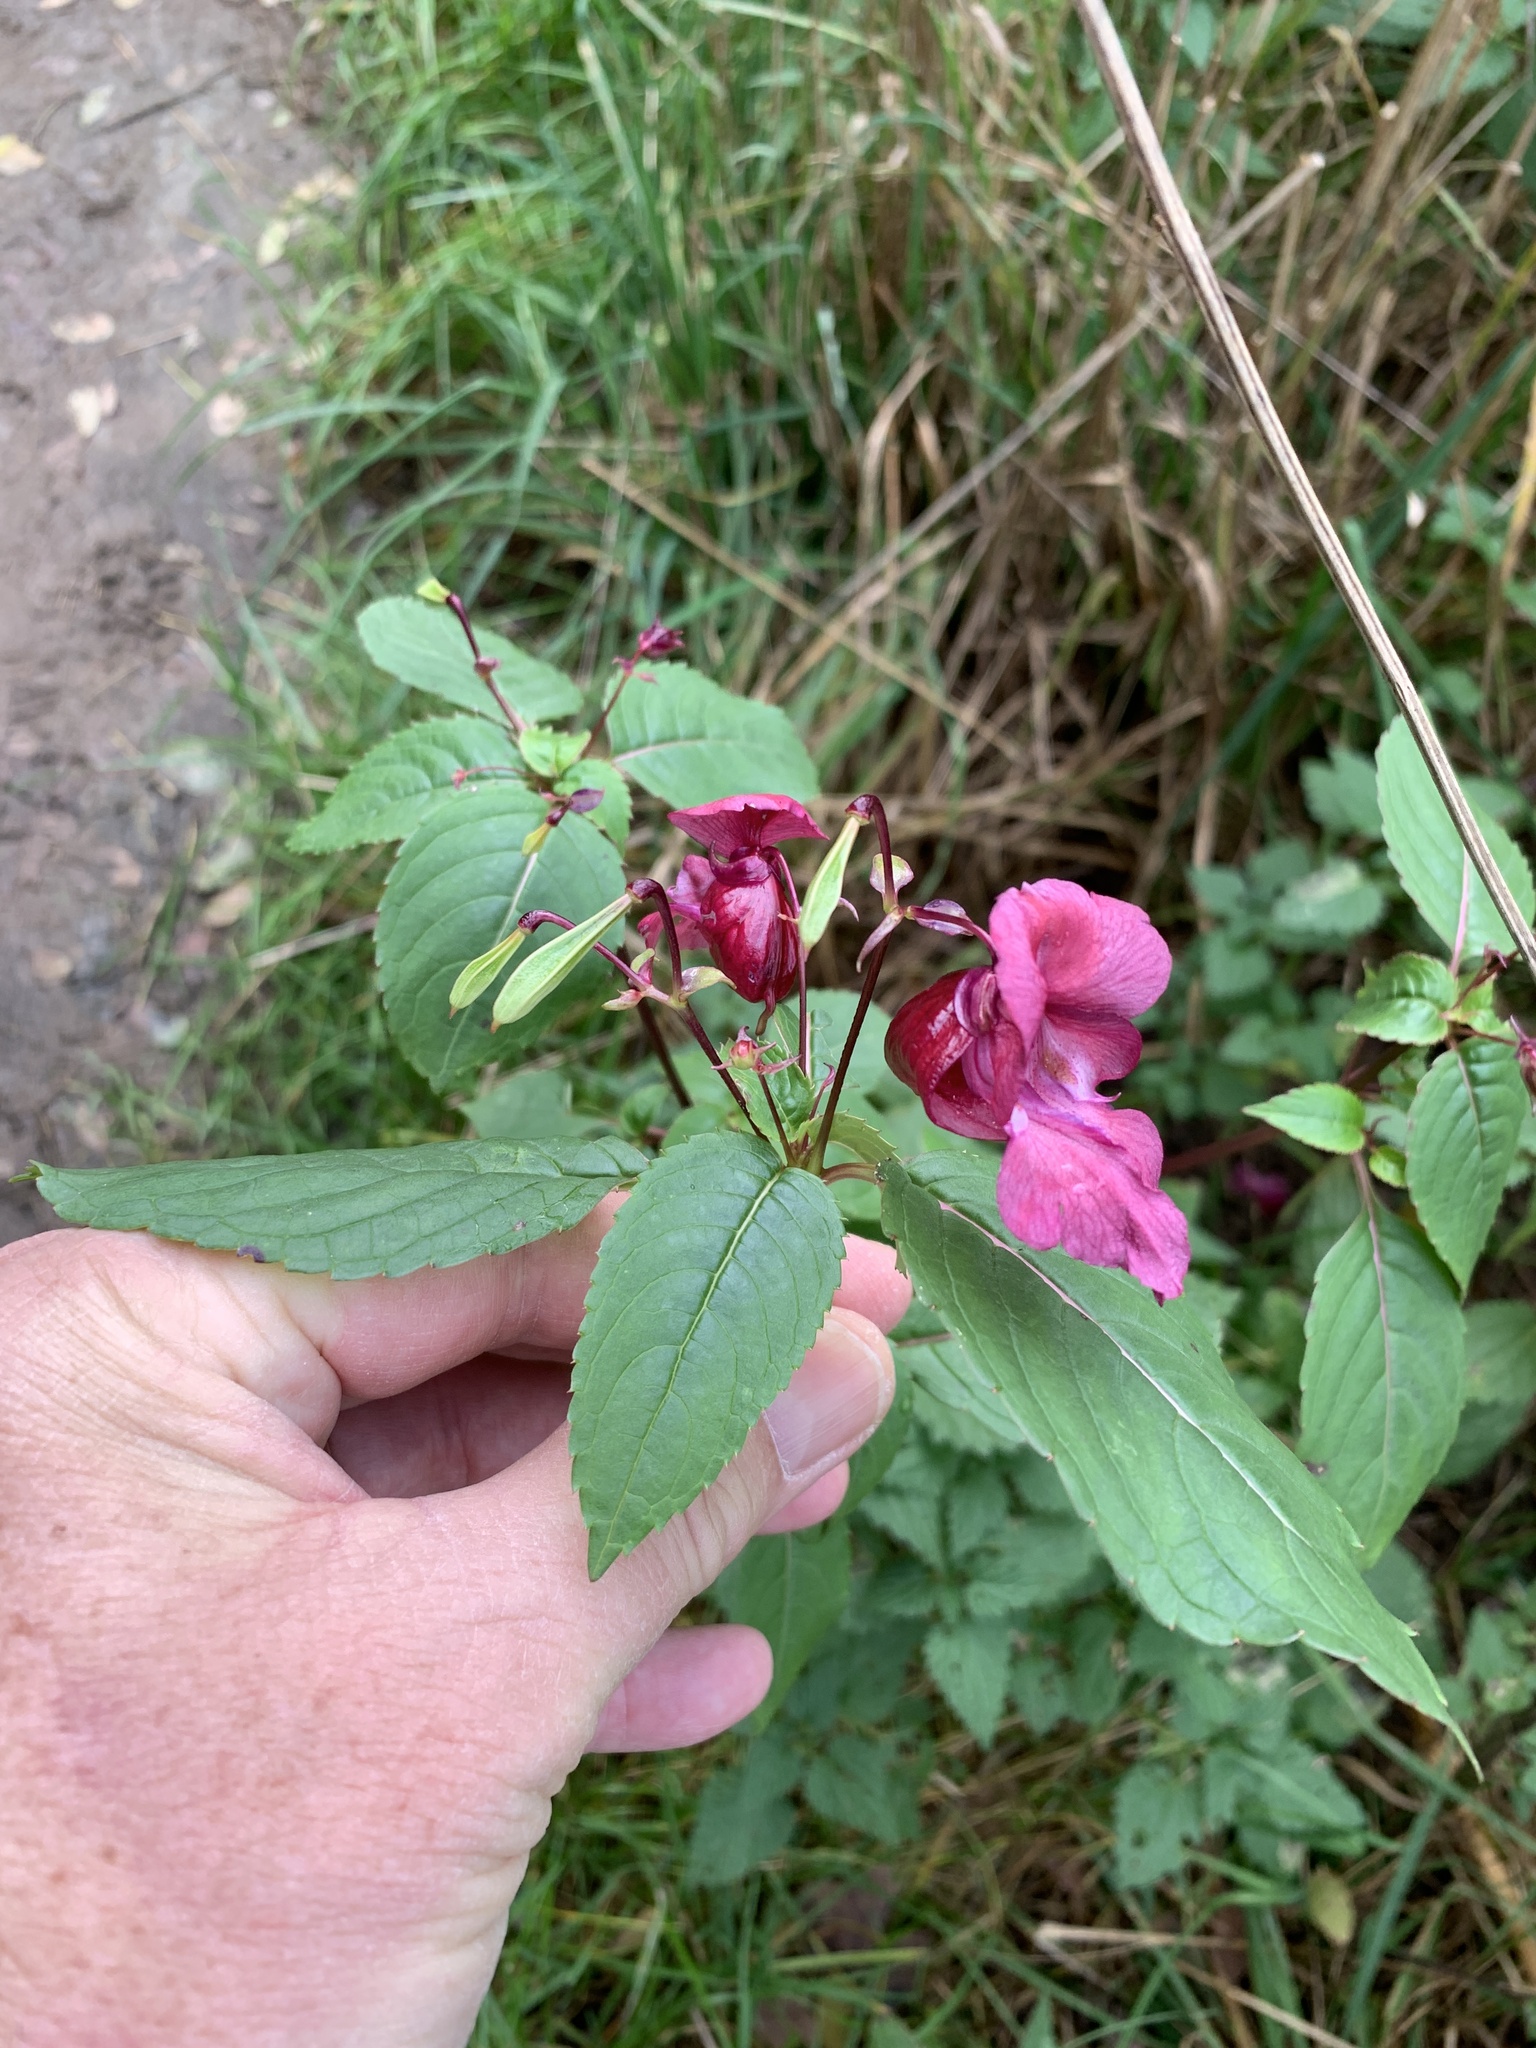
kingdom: Plantae
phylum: Tracheophyta
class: Magnoliopsida
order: Ericales
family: Balsaminaceae
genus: Impatiens
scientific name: Impatiens glandulifera
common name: Himalayan balsam
